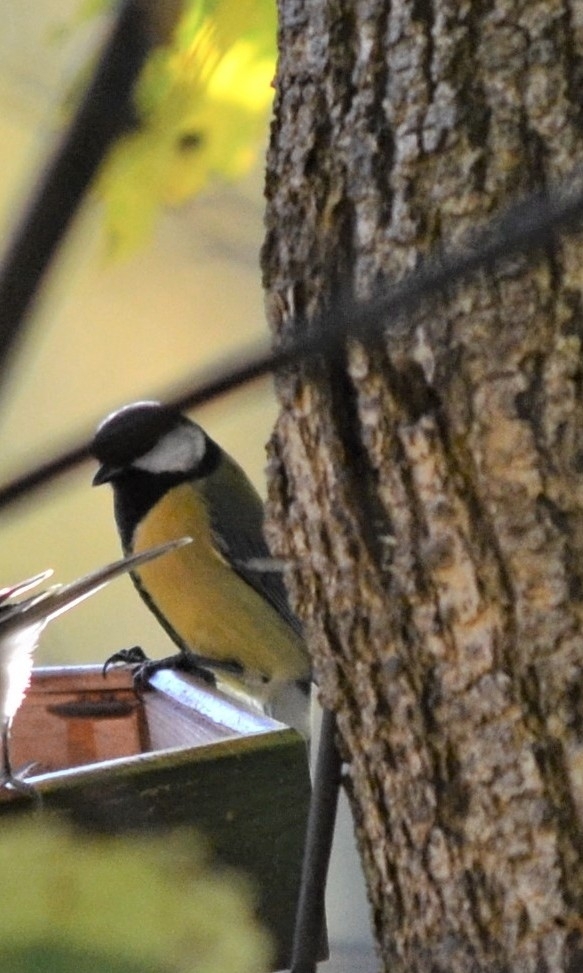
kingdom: Animalia
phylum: Chordata
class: Aves
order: Passeriformes
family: Paridae
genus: Parus
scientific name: Parus major
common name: Great tit
